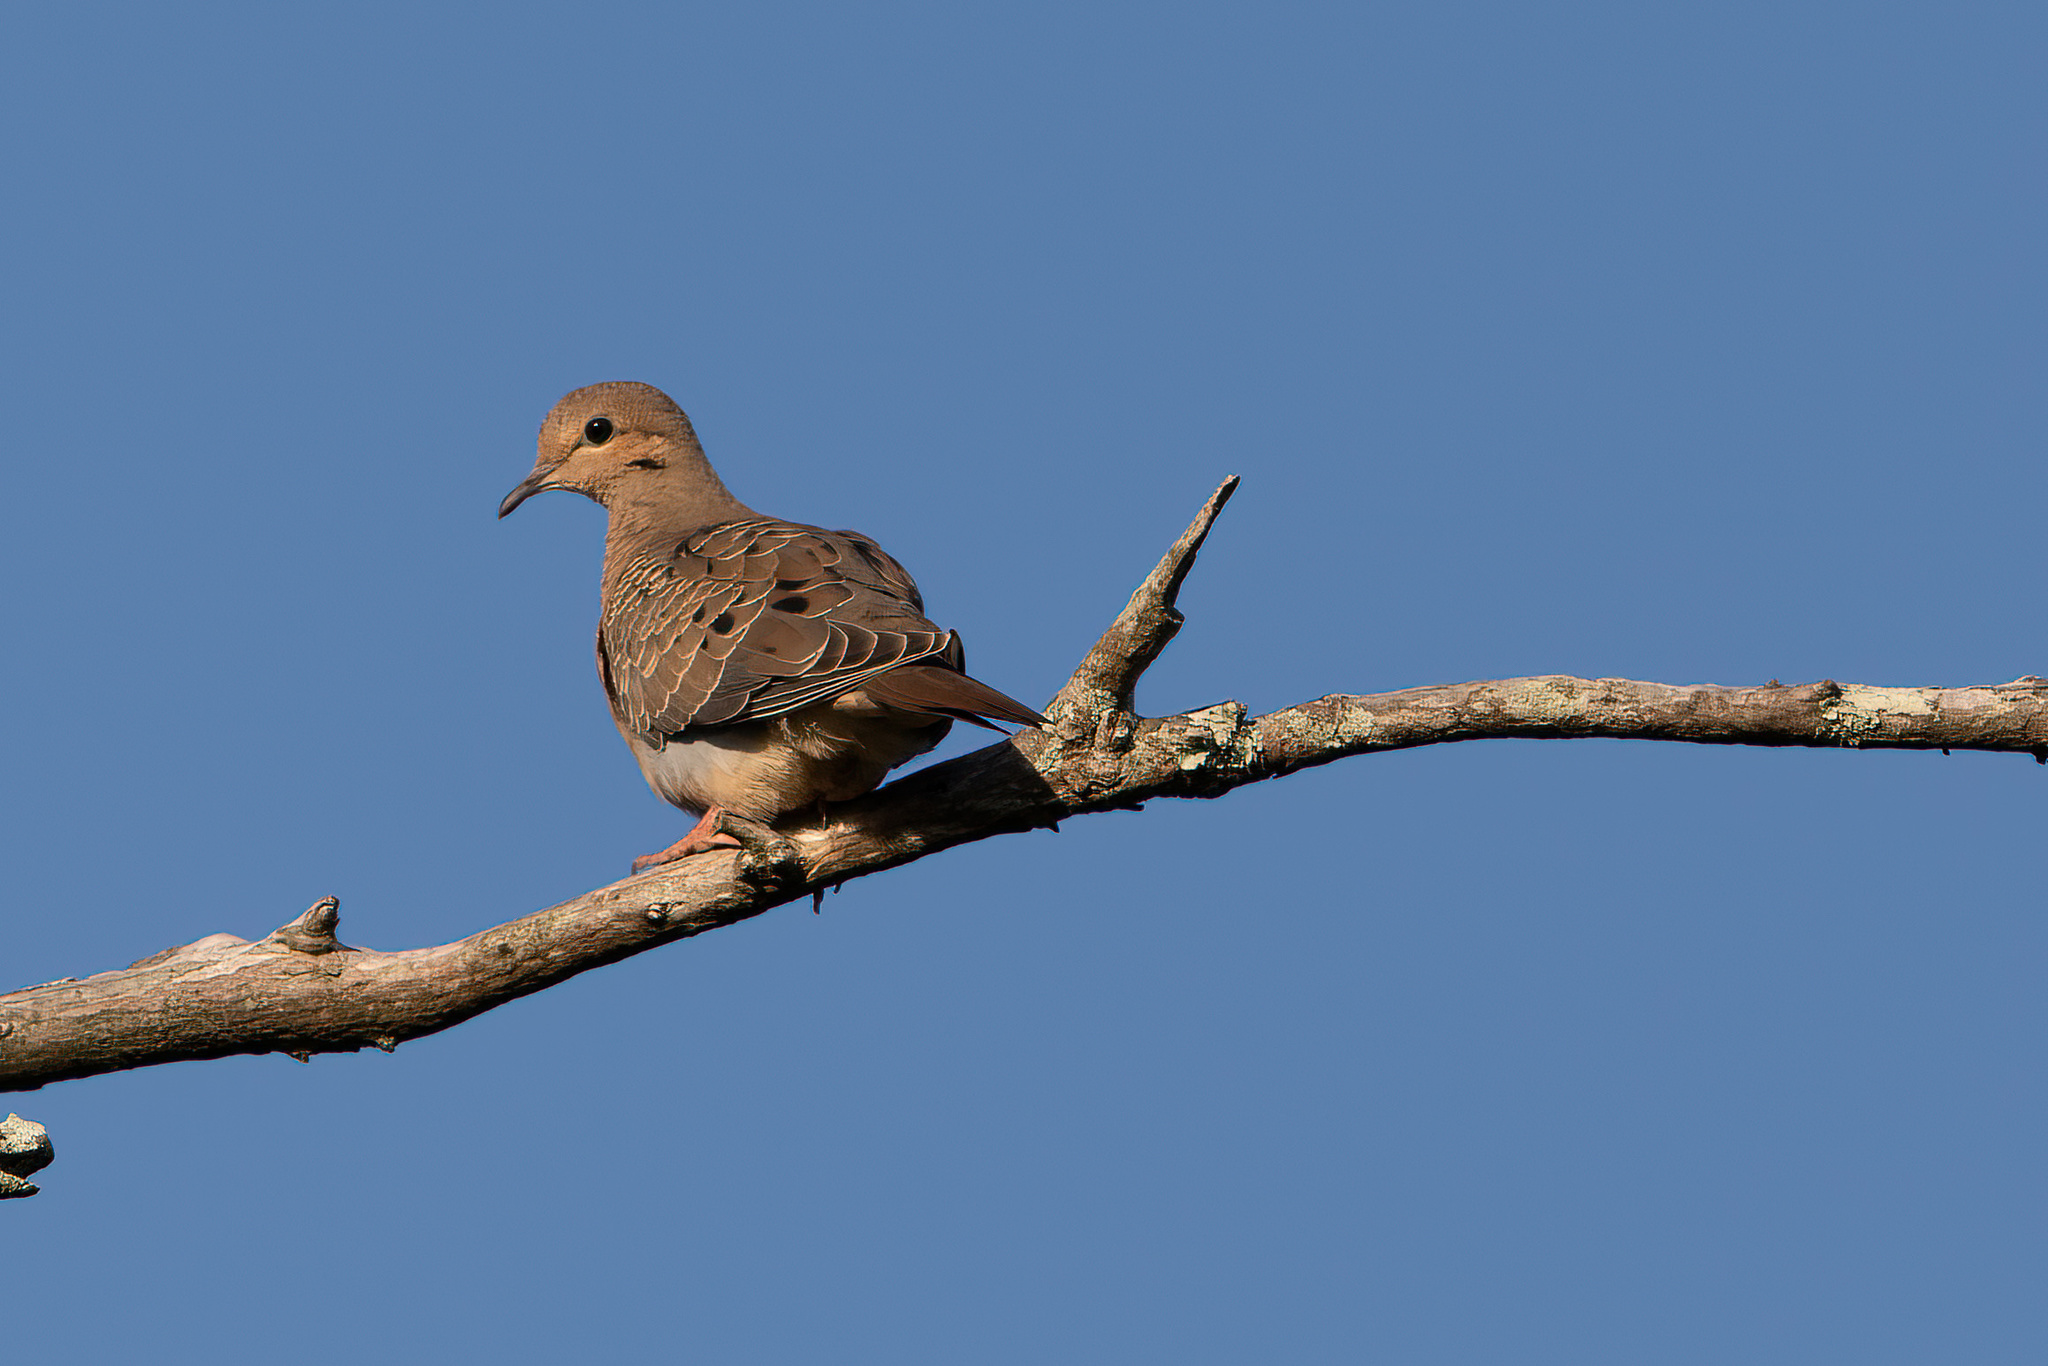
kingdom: Animalia
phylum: Chordata
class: Aves
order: Columbiformes
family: Columbidae
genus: Zenaida
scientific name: Zenaida macroura
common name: Mourning dove
